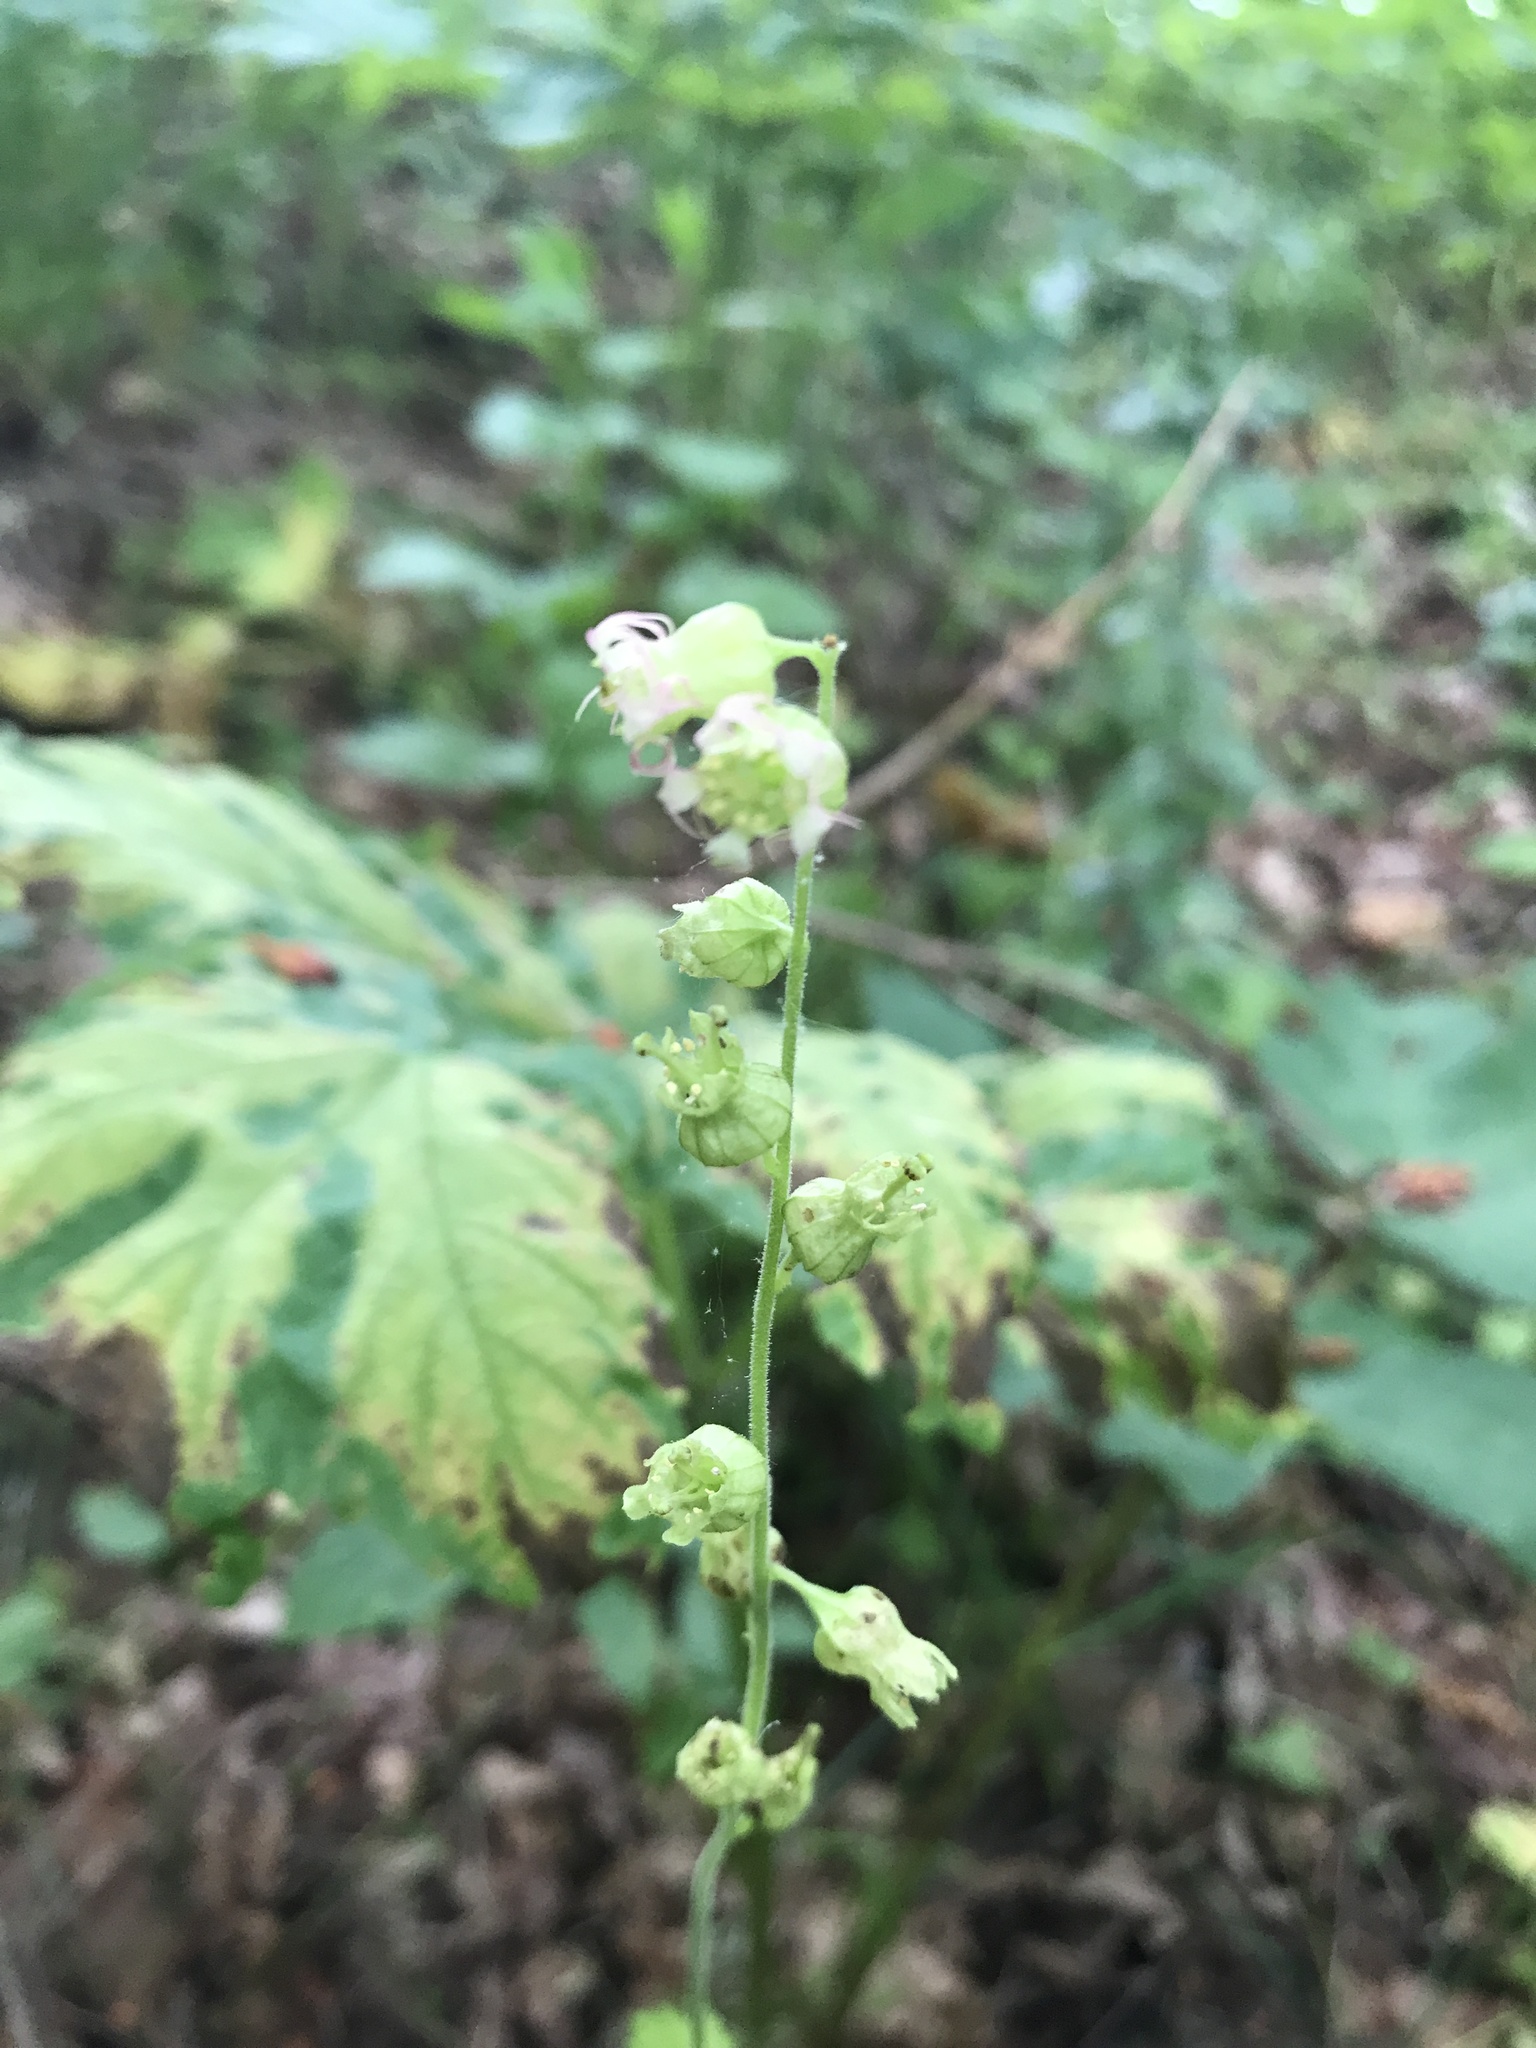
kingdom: Plantae
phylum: Tracheophyta
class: Magnoliopsida
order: Saxifragales
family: Saxifragaceae
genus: Tellima
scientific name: Tellima grandiflora
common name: Fringecups
